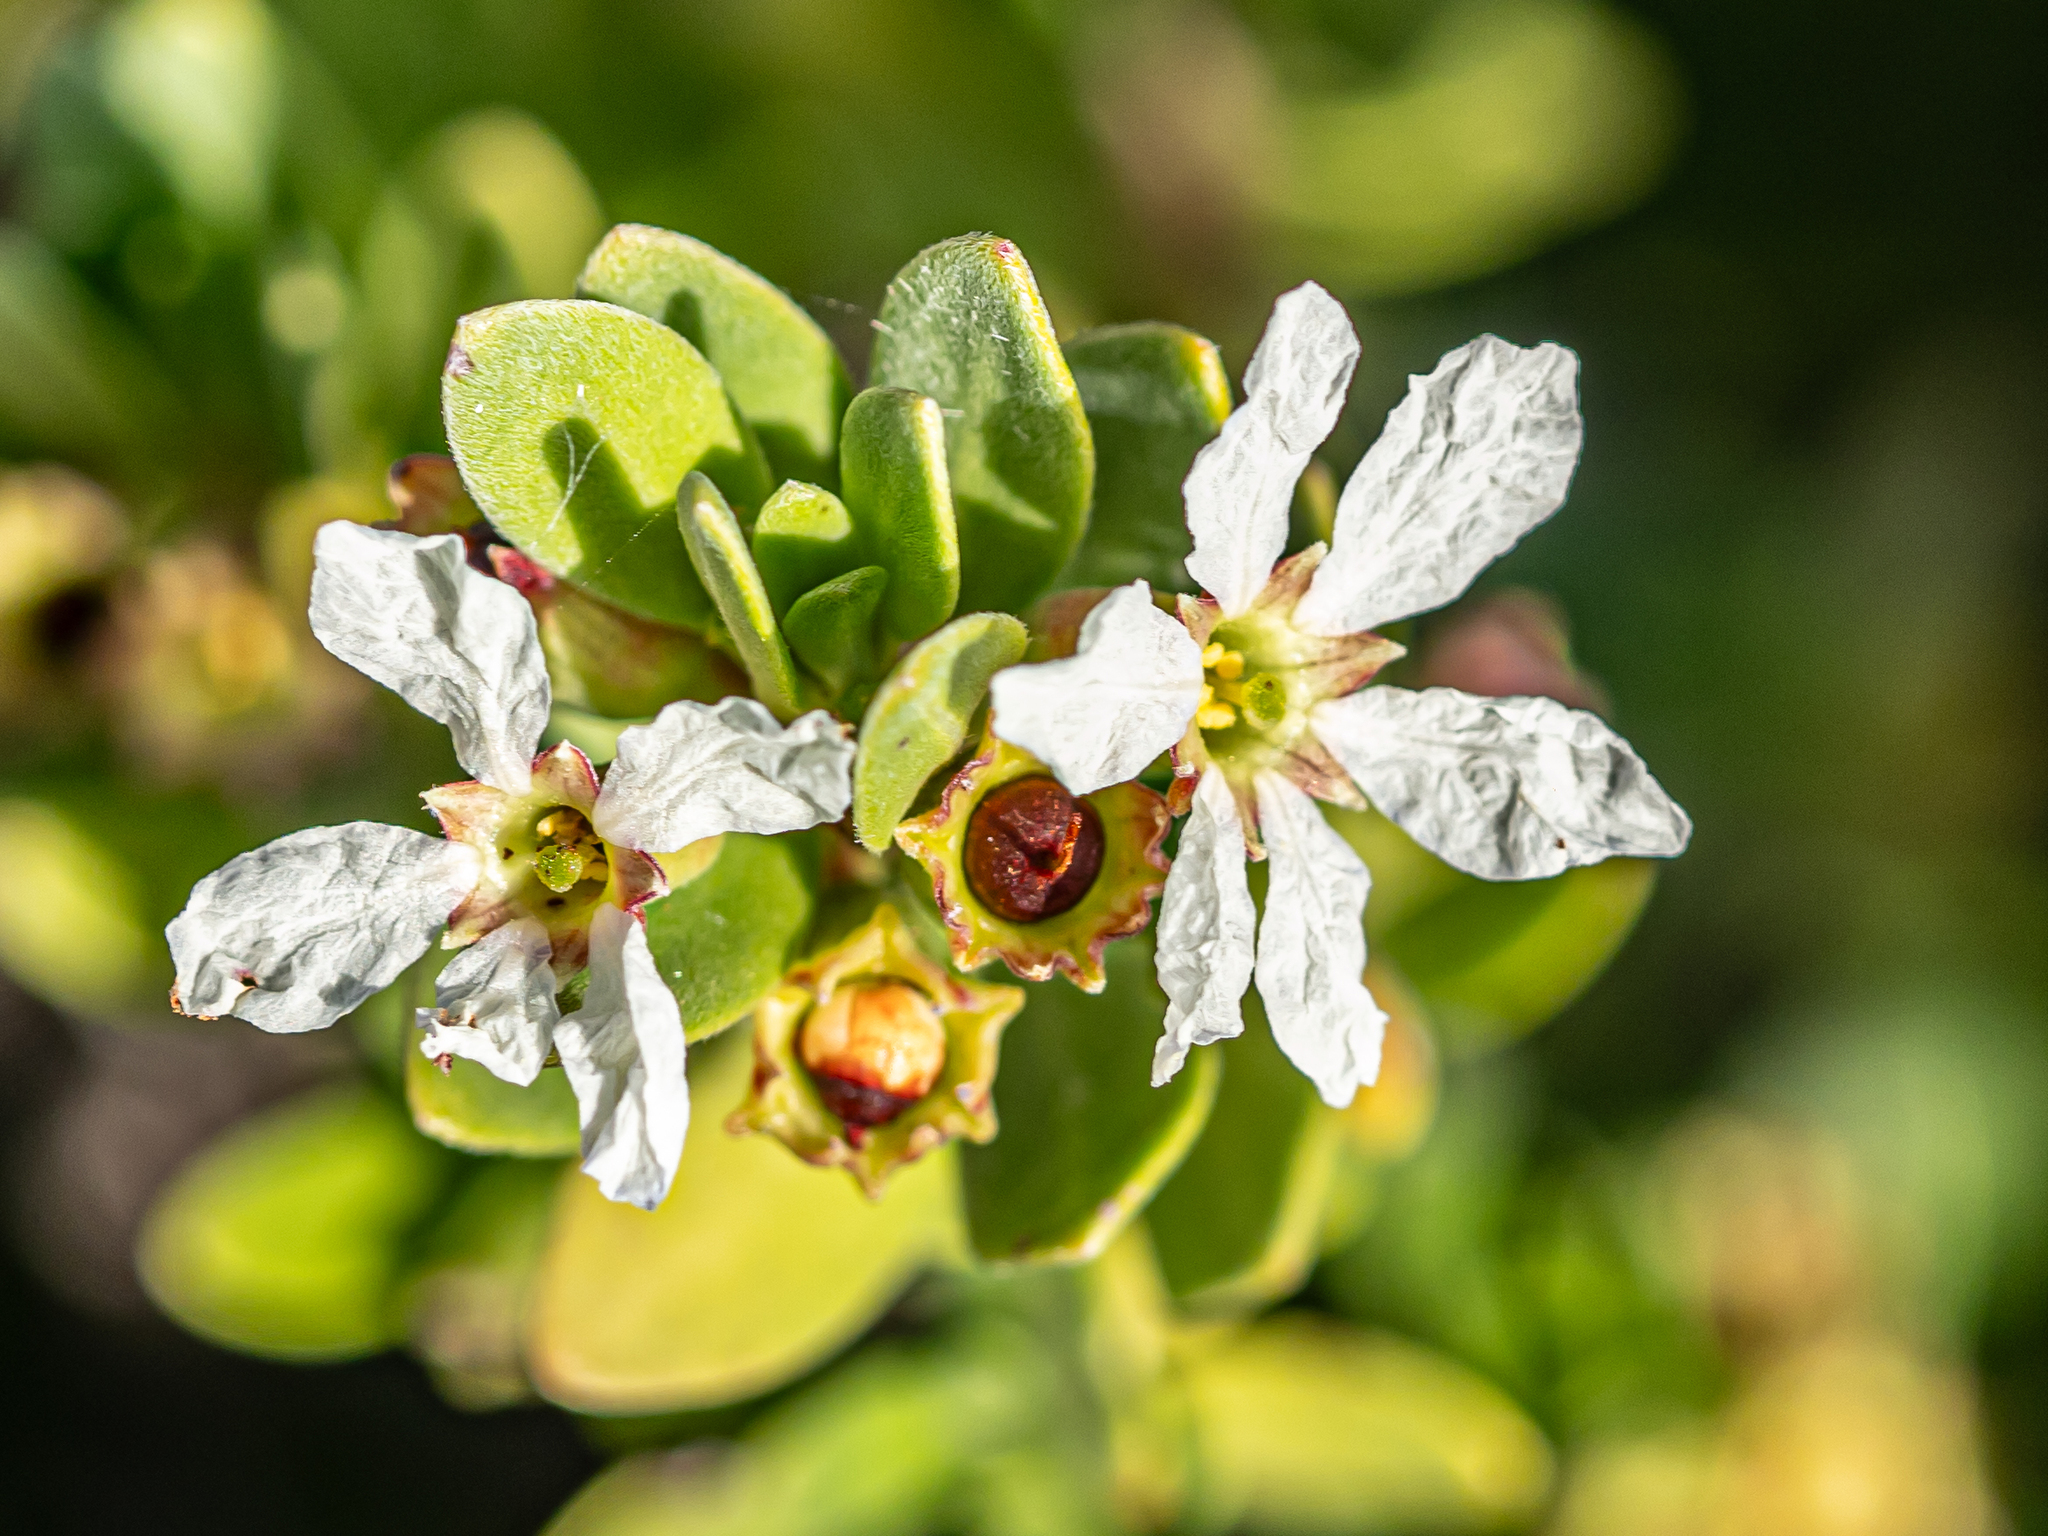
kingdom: Plantae
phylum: Tracheophyta
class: Magnoliopsida
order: Myrtales
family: Lythraceae
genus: Pemphis
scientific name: Pemphis acidula
